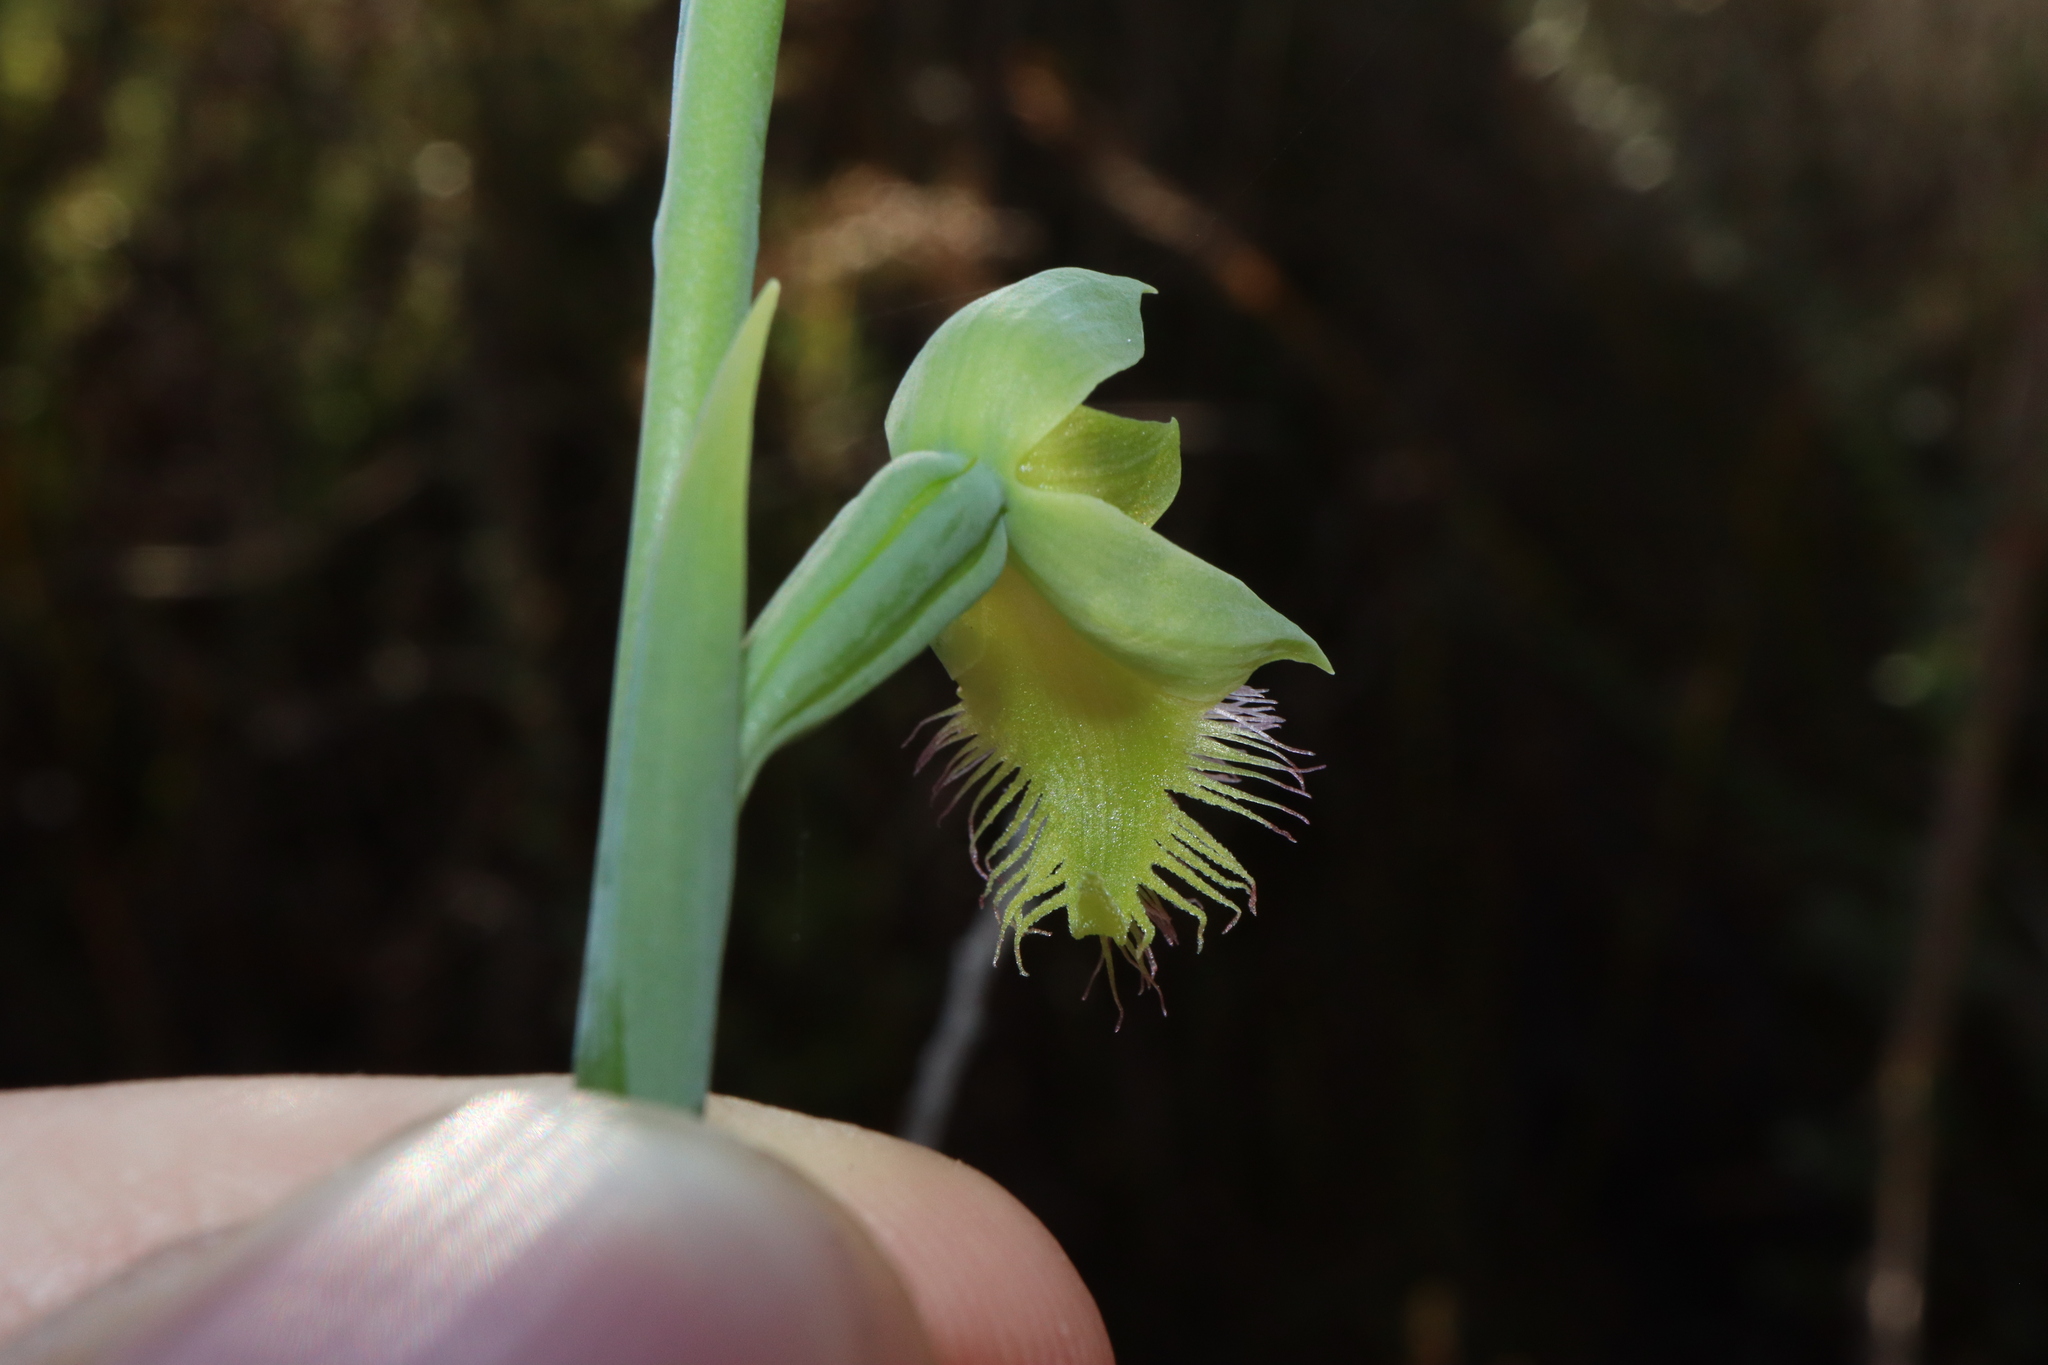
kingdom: Plantae
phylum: Tracheophyta
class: Liliopsida
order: Asparagales
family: Orchidaceae
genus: Calochilus
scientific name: Calochilus campestris
